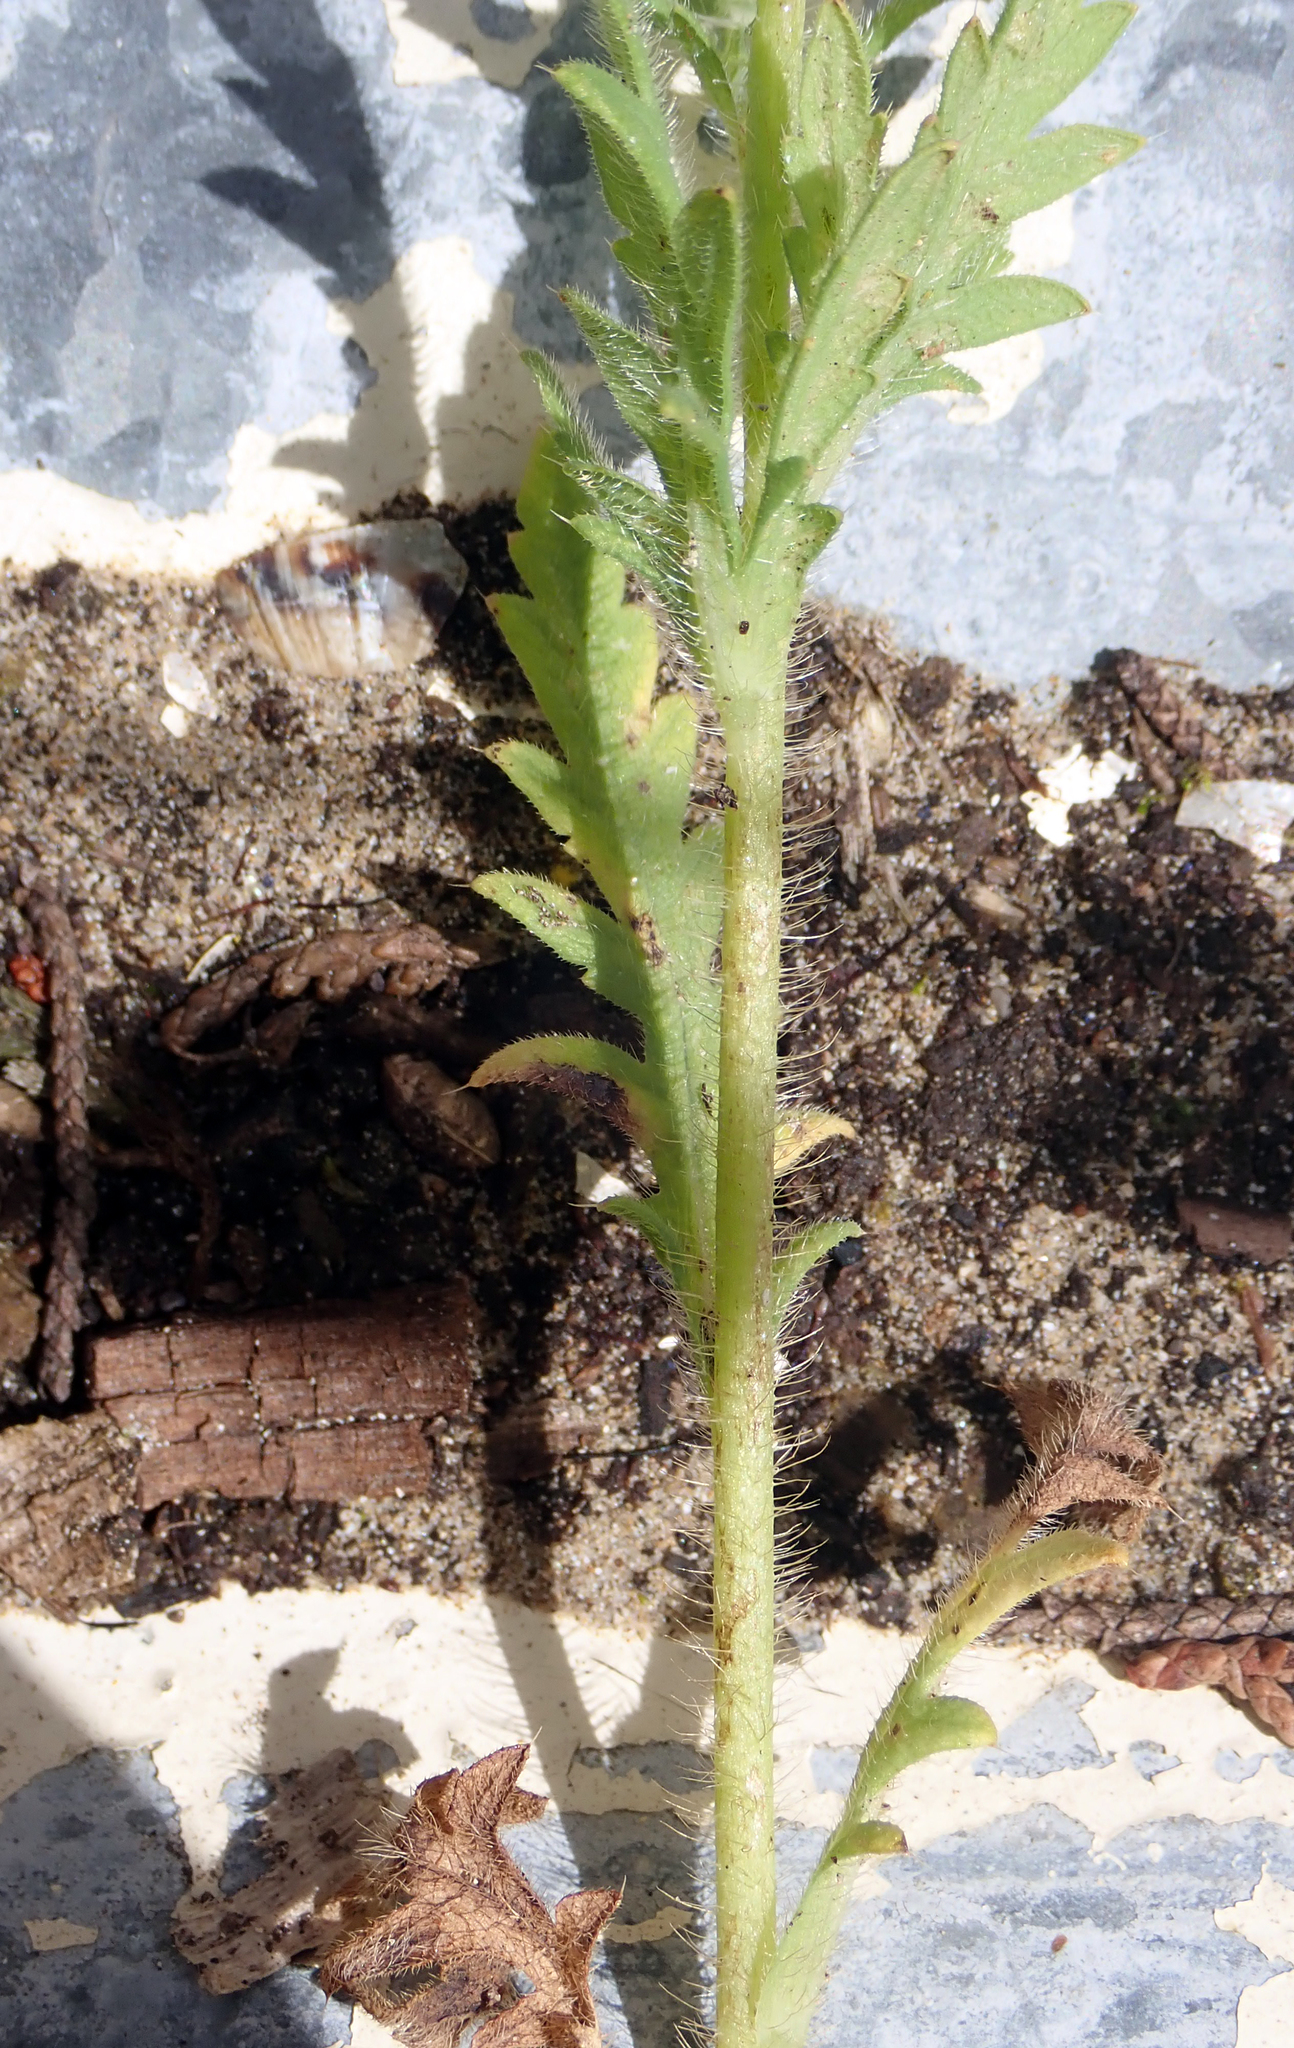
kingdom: Plantae
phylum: Tracheophyta
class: Magnoliopsida
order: Ranunculales
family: Papaveraceae
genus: Papaver
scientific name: Papaver rhoeas
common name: Corn poppy
